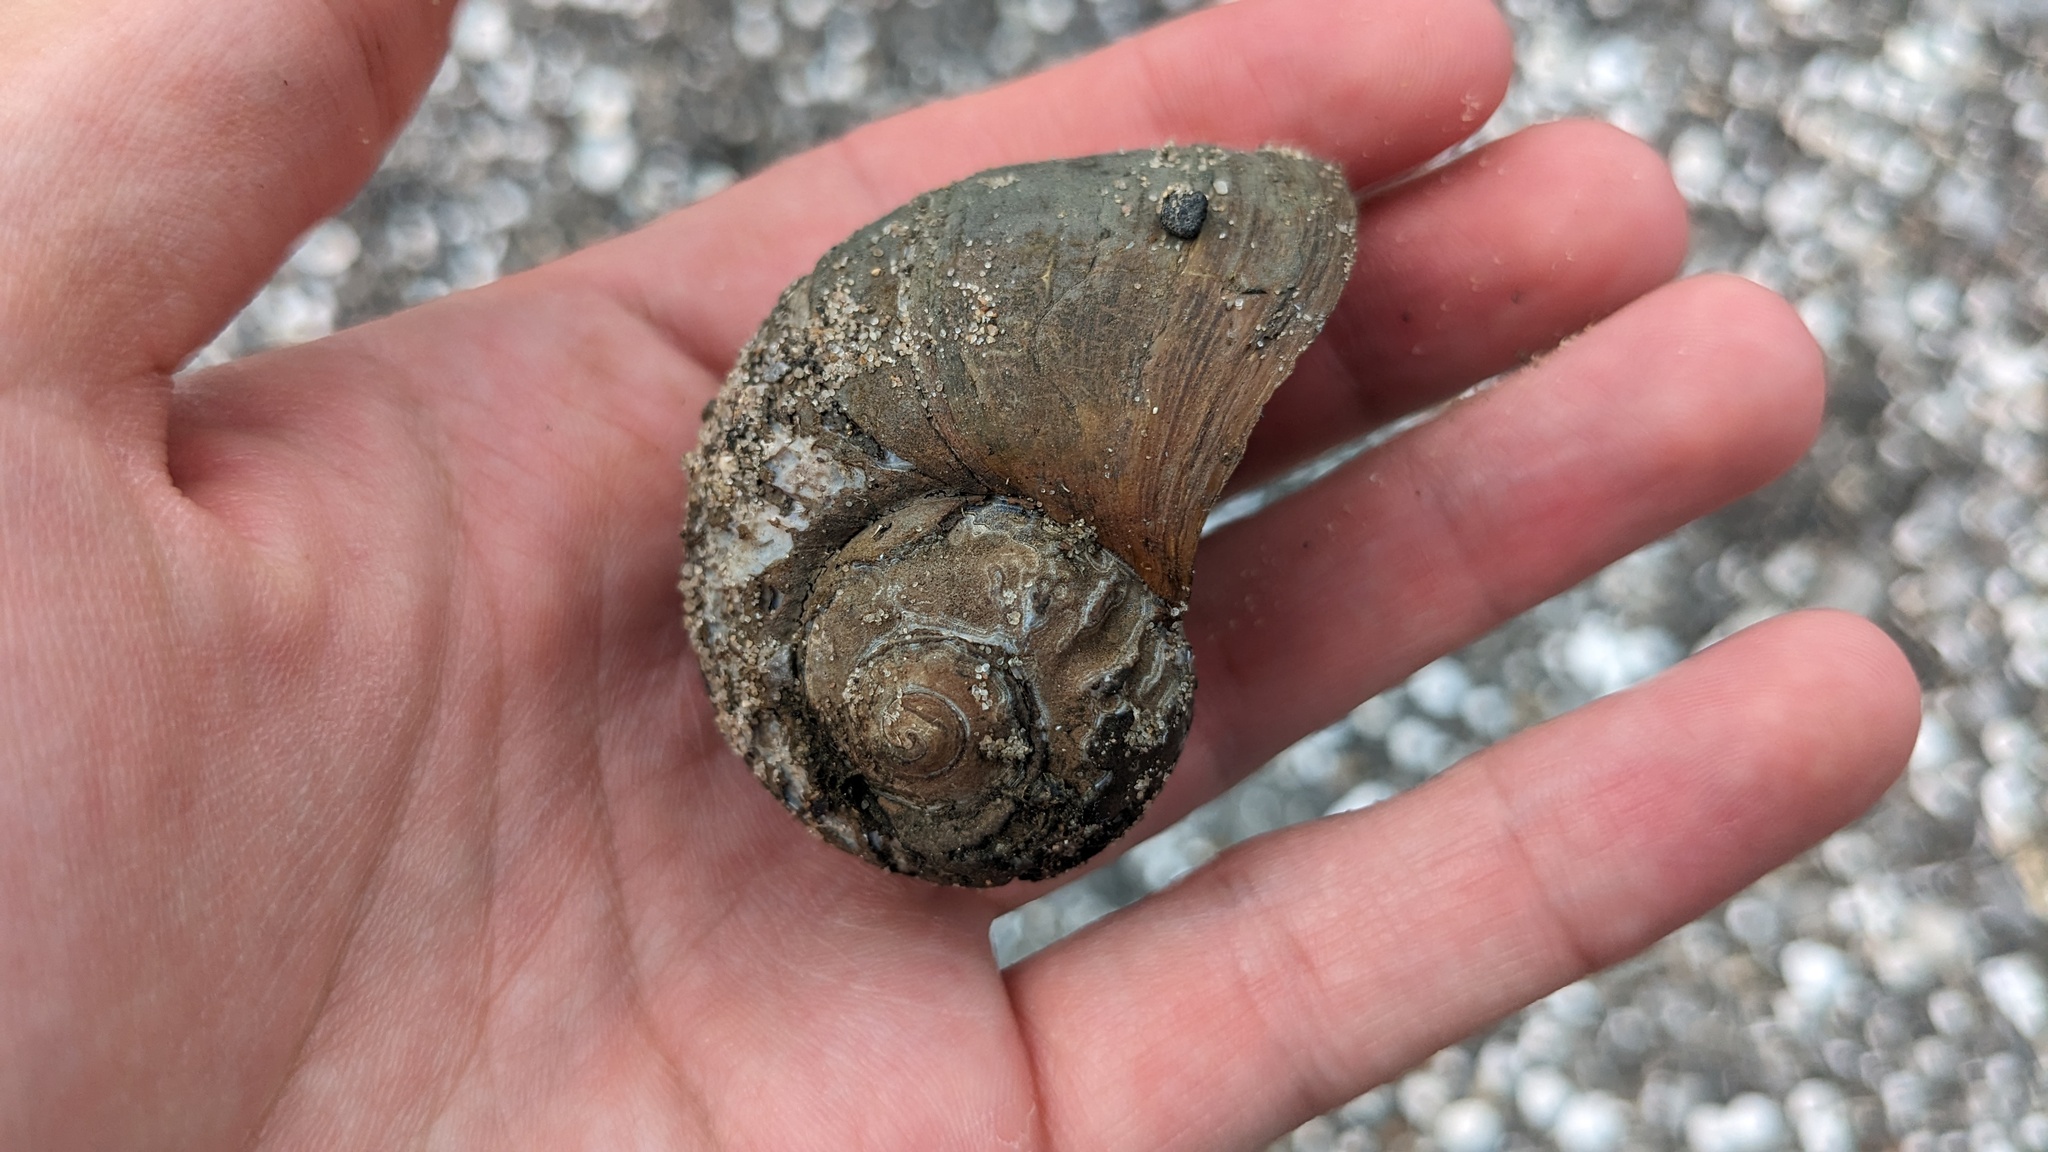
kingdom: Animalia
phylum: Mollusca
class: Gastropoda
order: Architaenioglossa
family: Ampullariidae
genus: Pomacea
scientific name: Pomacea maculata
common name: Giant applesnail
